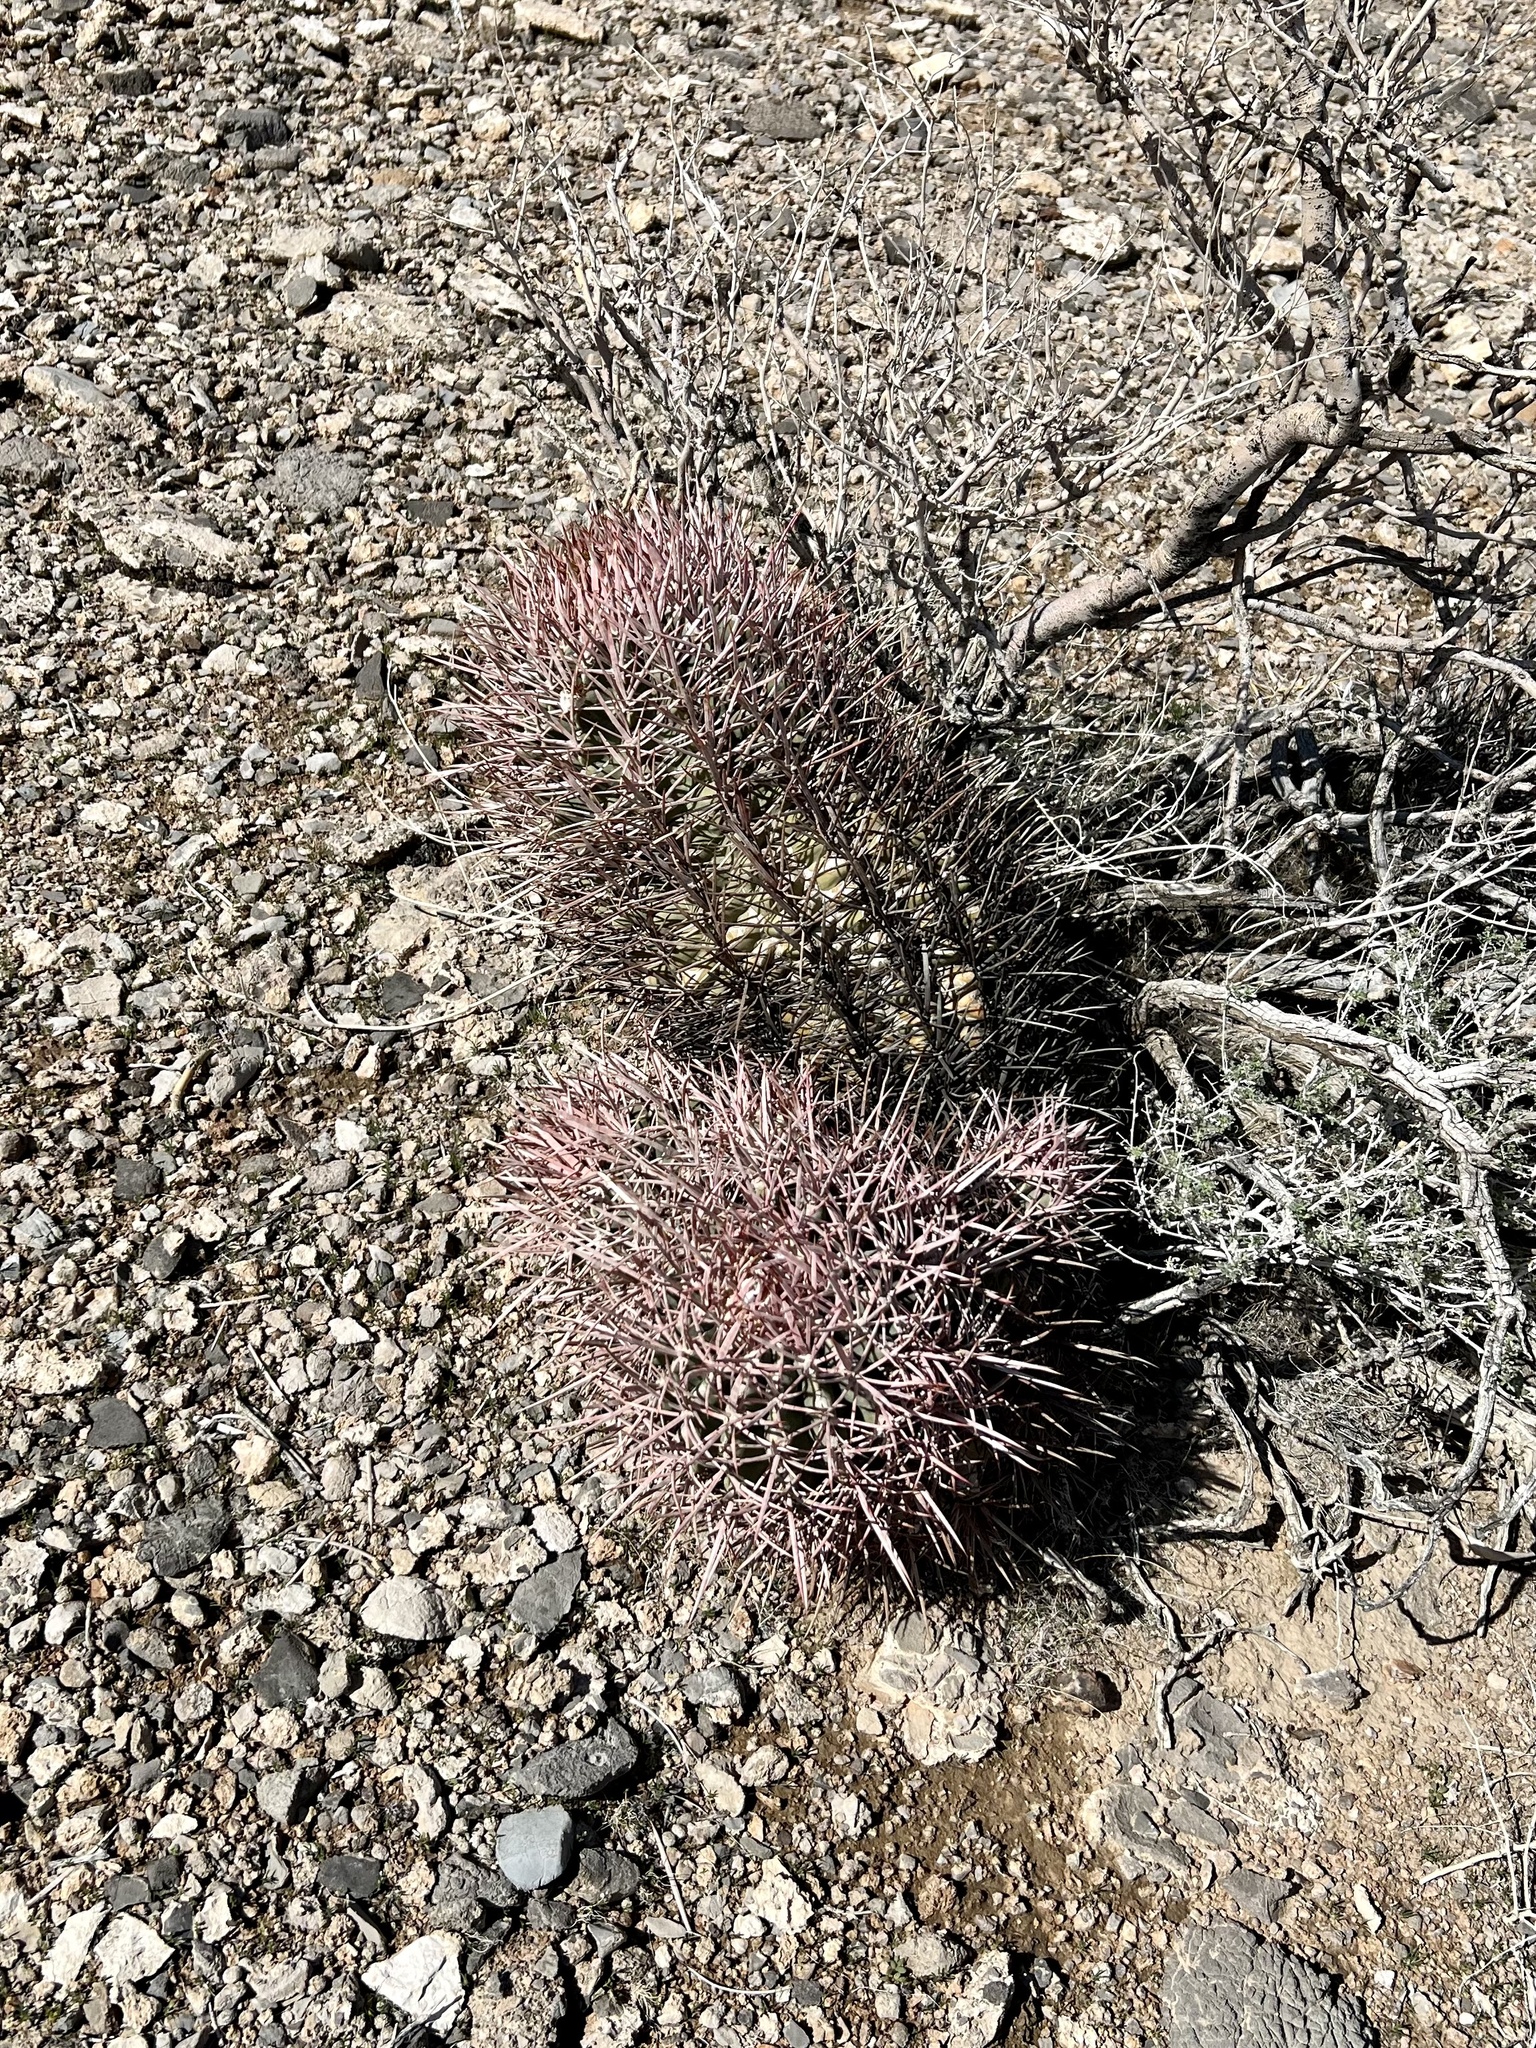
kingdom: Plantae
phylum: Tracheophyta
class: Magnoliopsida
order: Caryophyllales
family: Cactaceae
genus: Echinocactus
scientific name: Echinocactus polycephalus
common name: Cottontop cactus
